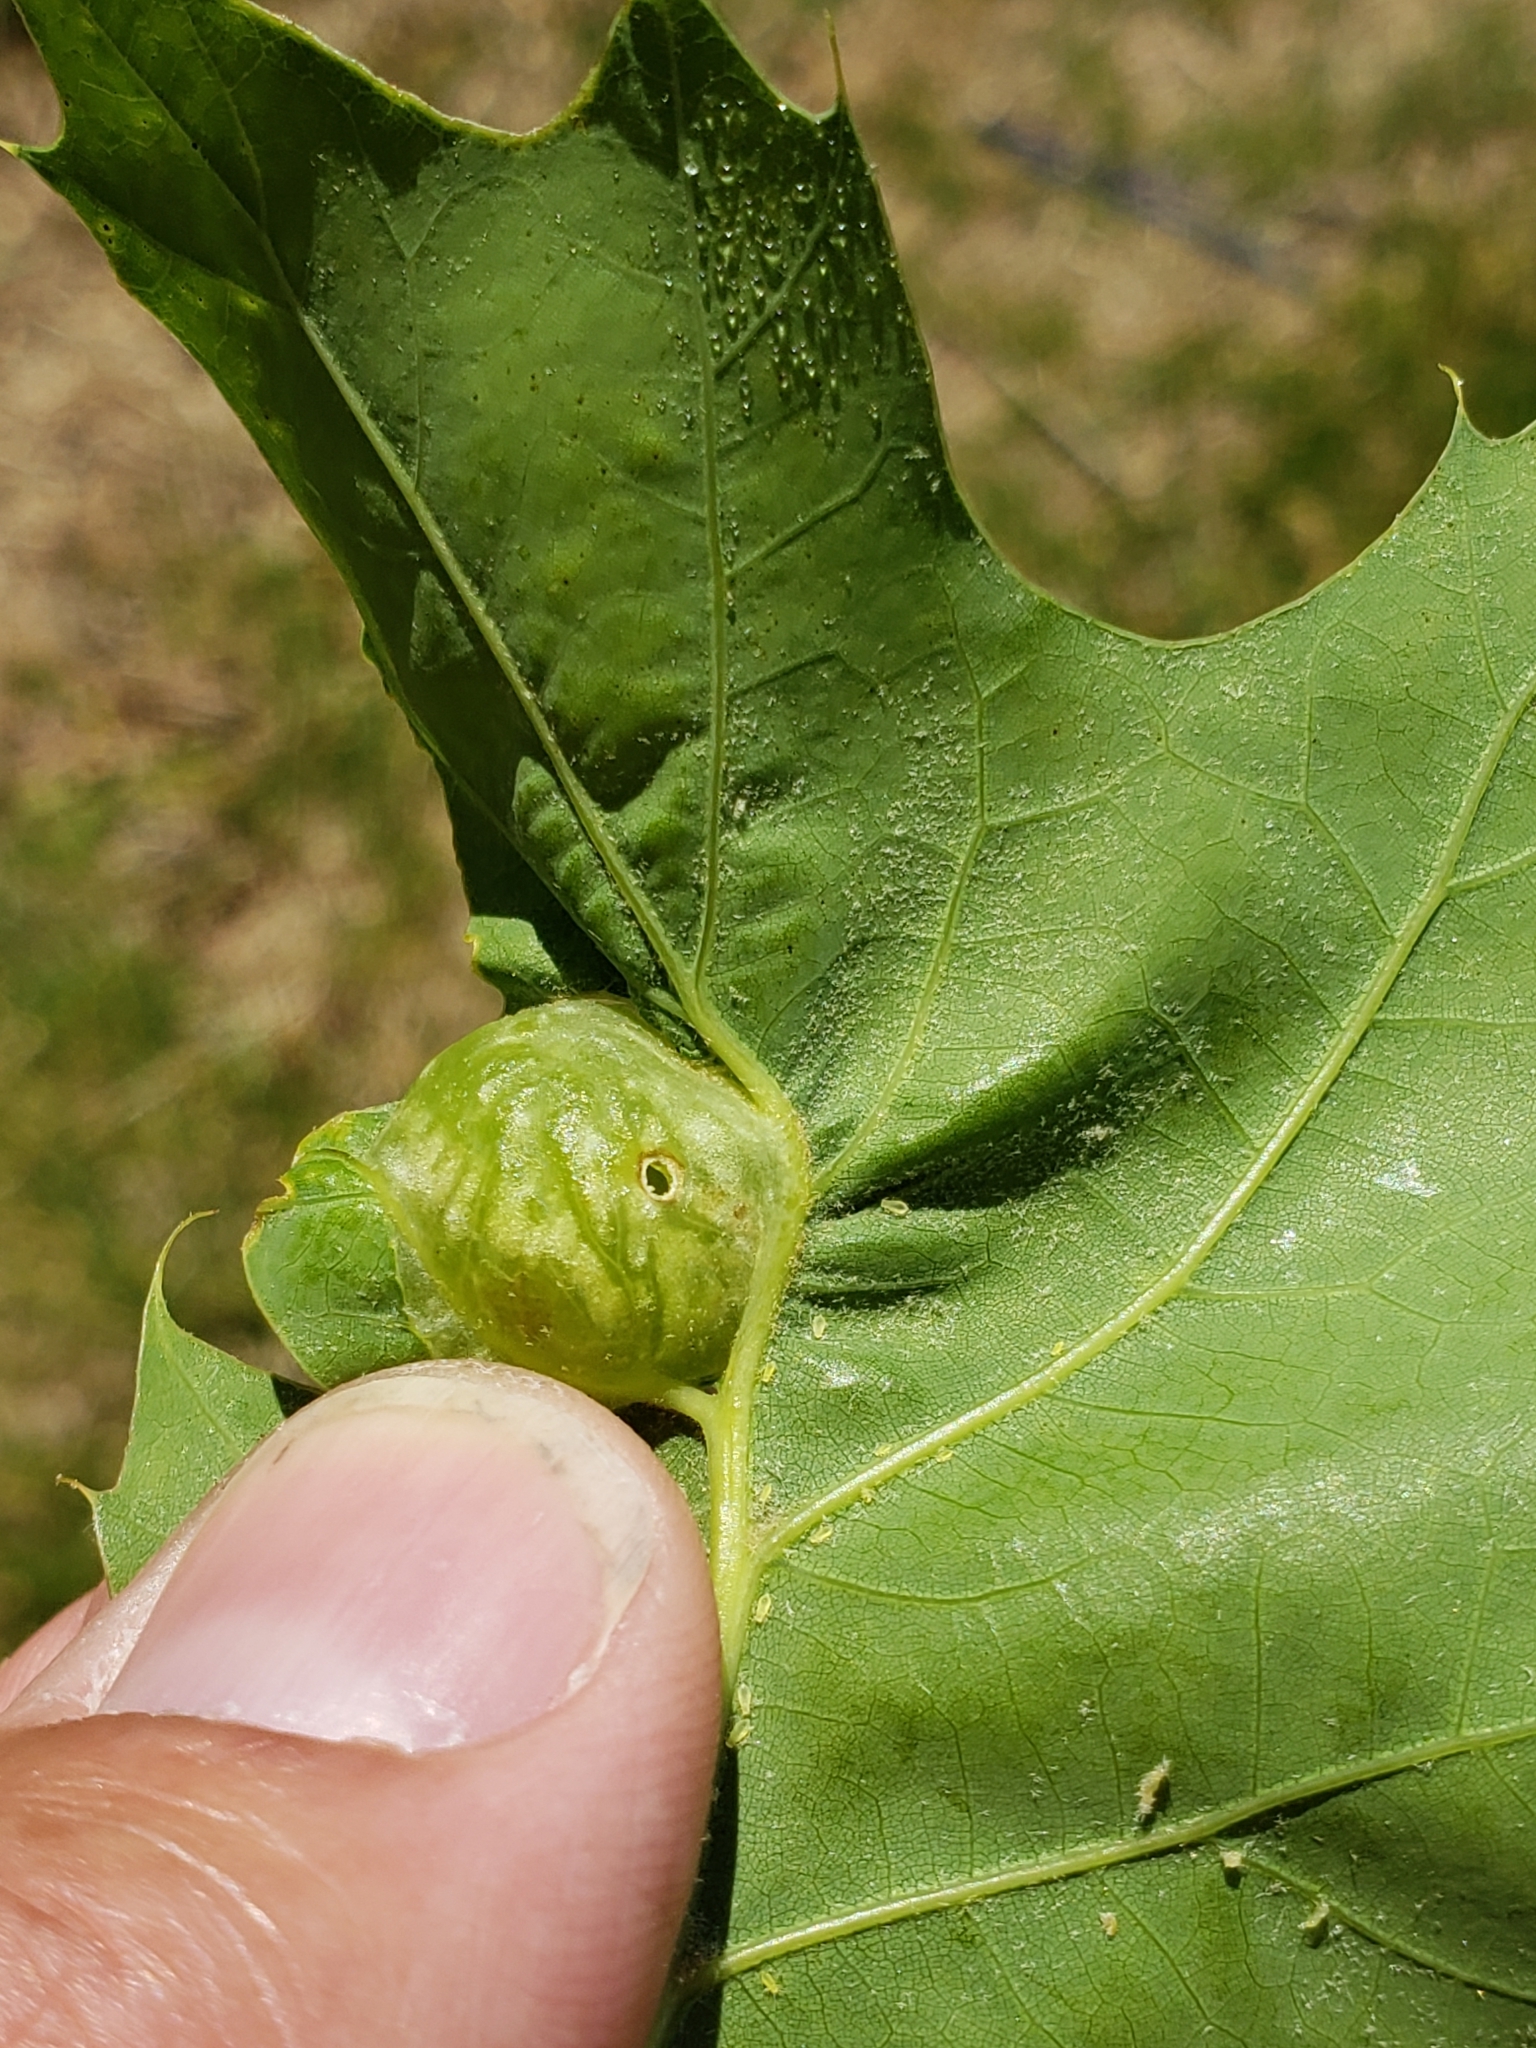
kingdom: Animalia
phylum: Arthropoda
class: Insecta
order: Hymenoptera
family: Cynipidae
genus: Dryocosmus
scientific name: Dryocosmus quercuspalustris
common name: Succulent oak gall wasp
